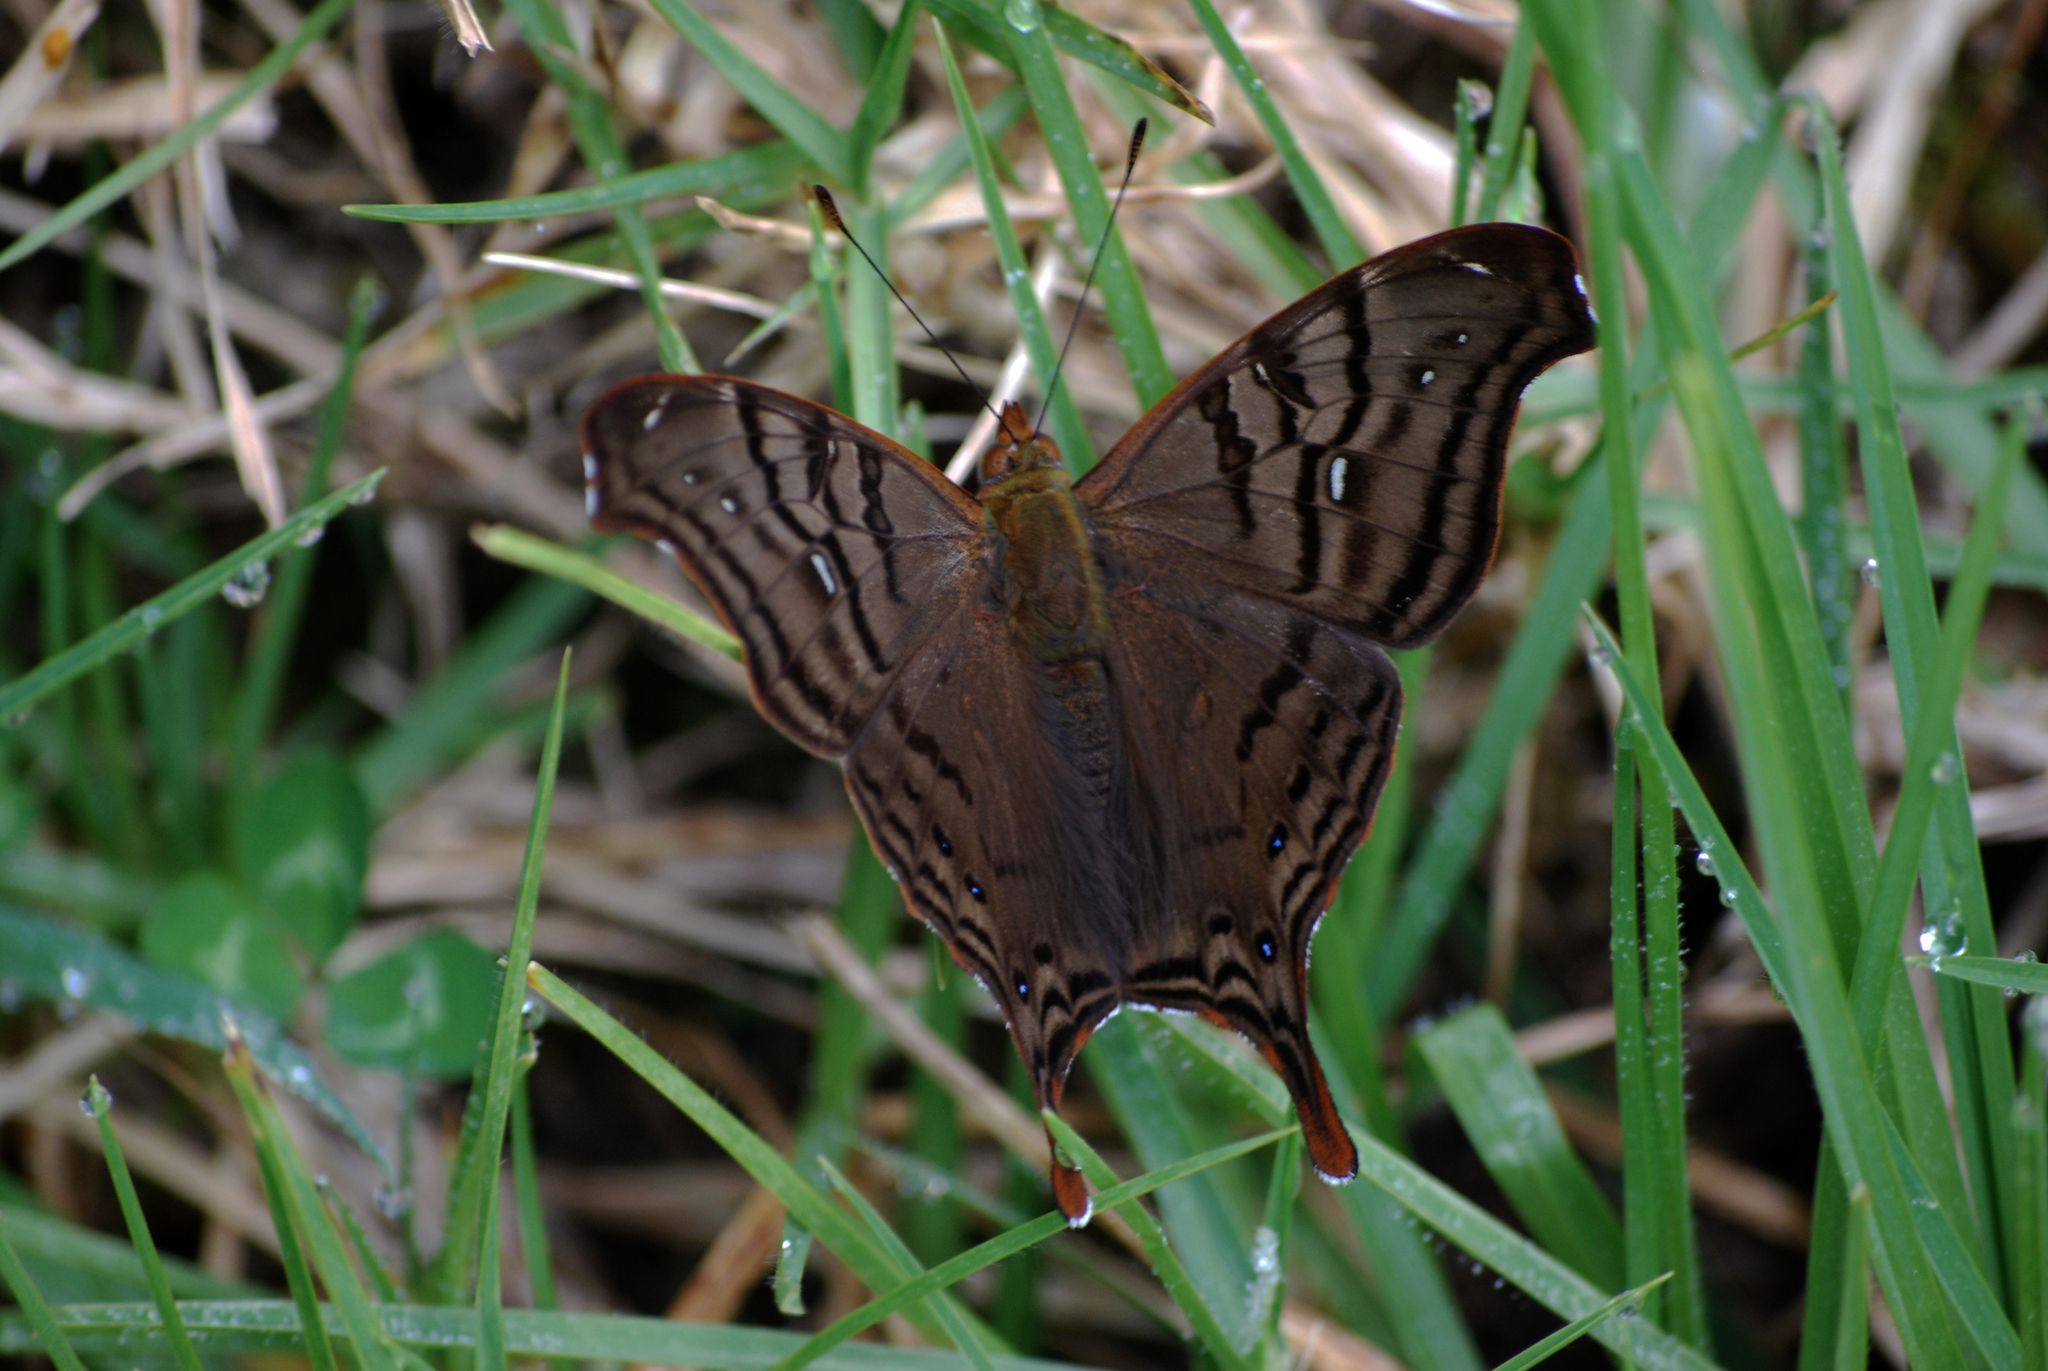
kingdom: Animalia
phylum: Arthropoda
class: Insecta
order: Lepidoptera
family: Nymphalidae
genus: Hypanartia
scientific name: Hypanartia dione
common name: Banded mapwing
